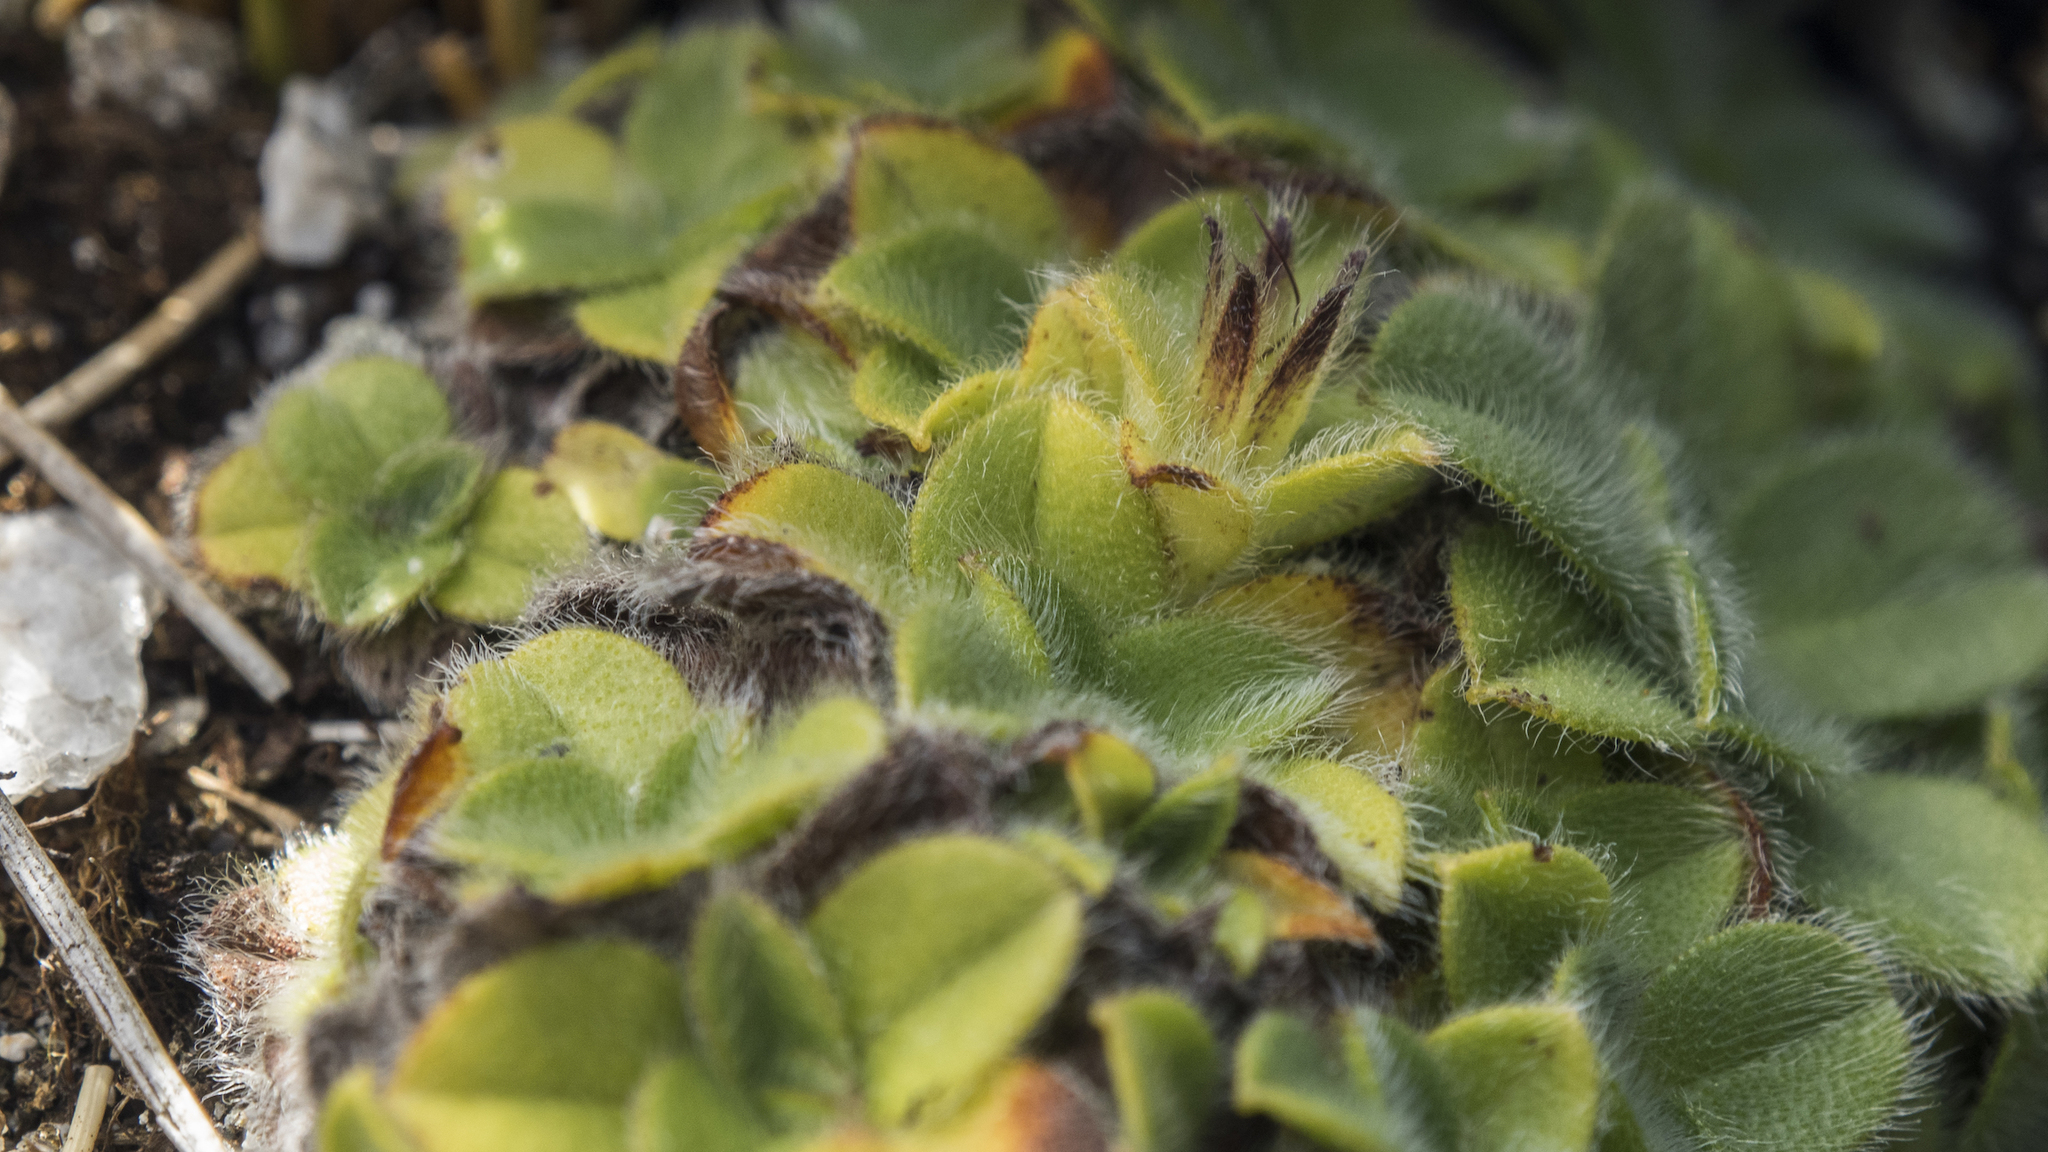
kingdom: Plantae
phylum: Tracheophyta
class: Magnoliopsida
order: Boraginales
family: Boraginaceae
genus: Myosotis
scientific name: Myosotis retrorsa
